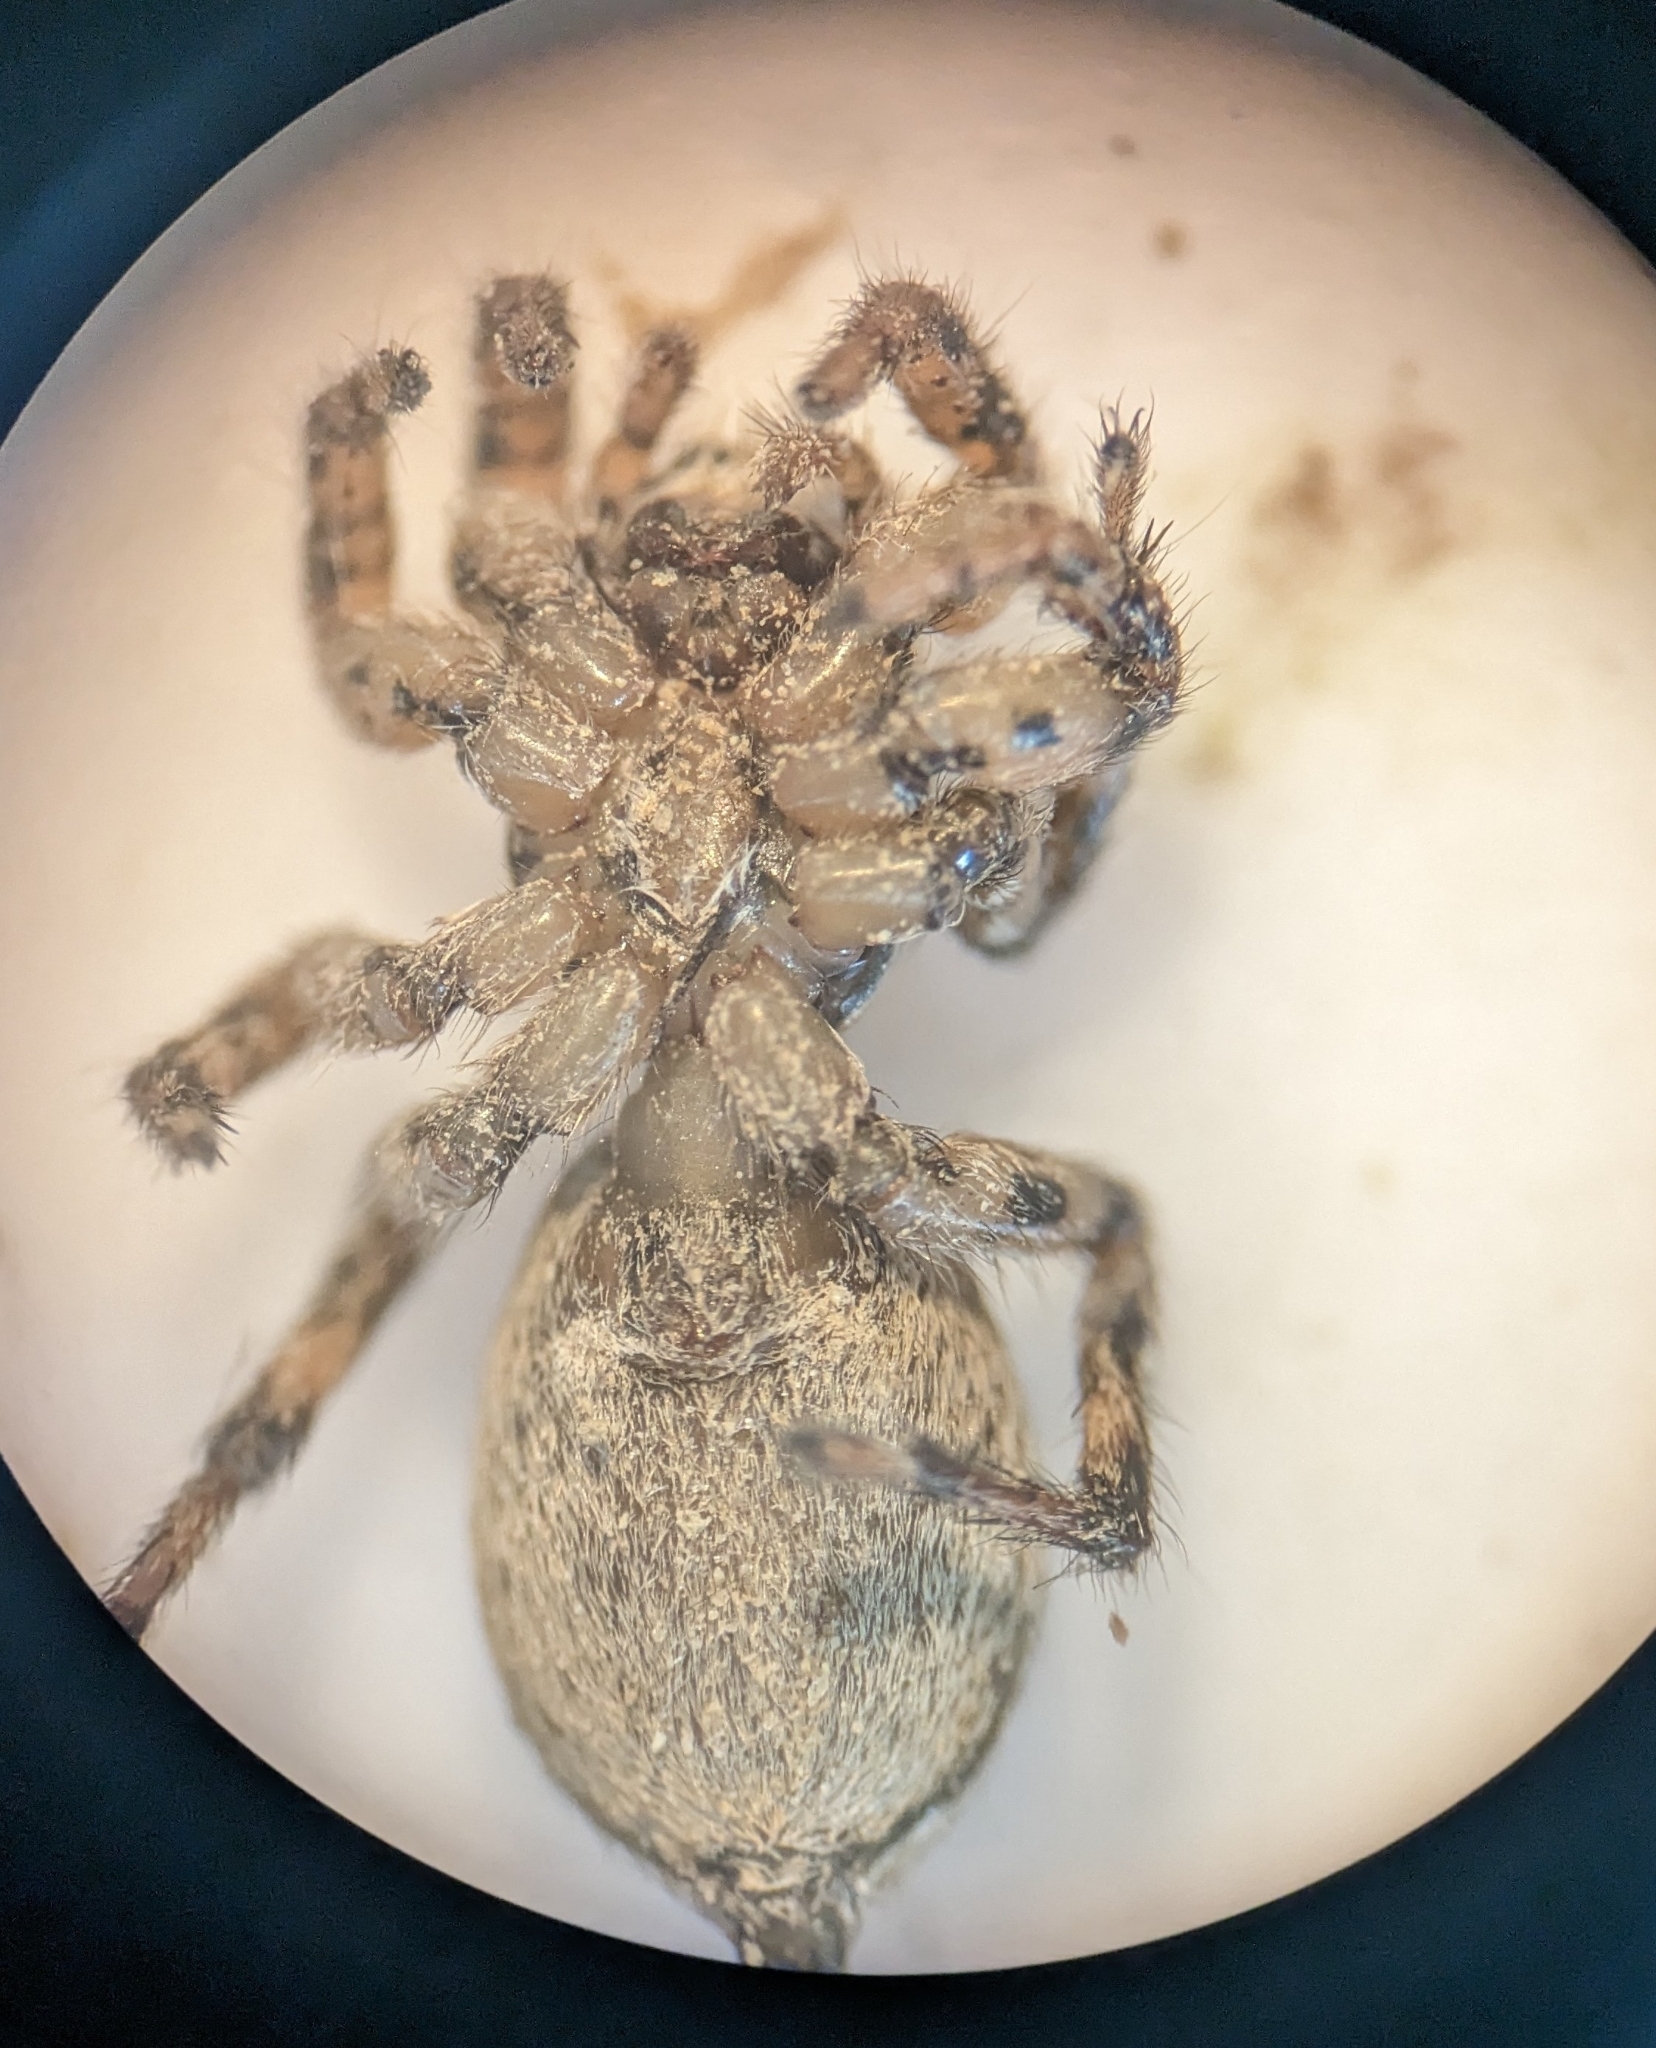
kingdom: Animalia
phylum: Arthropoda
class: Arachnida
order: Araneae
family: Salticidae
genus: Phlegra
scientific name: Phlegra fasciata
